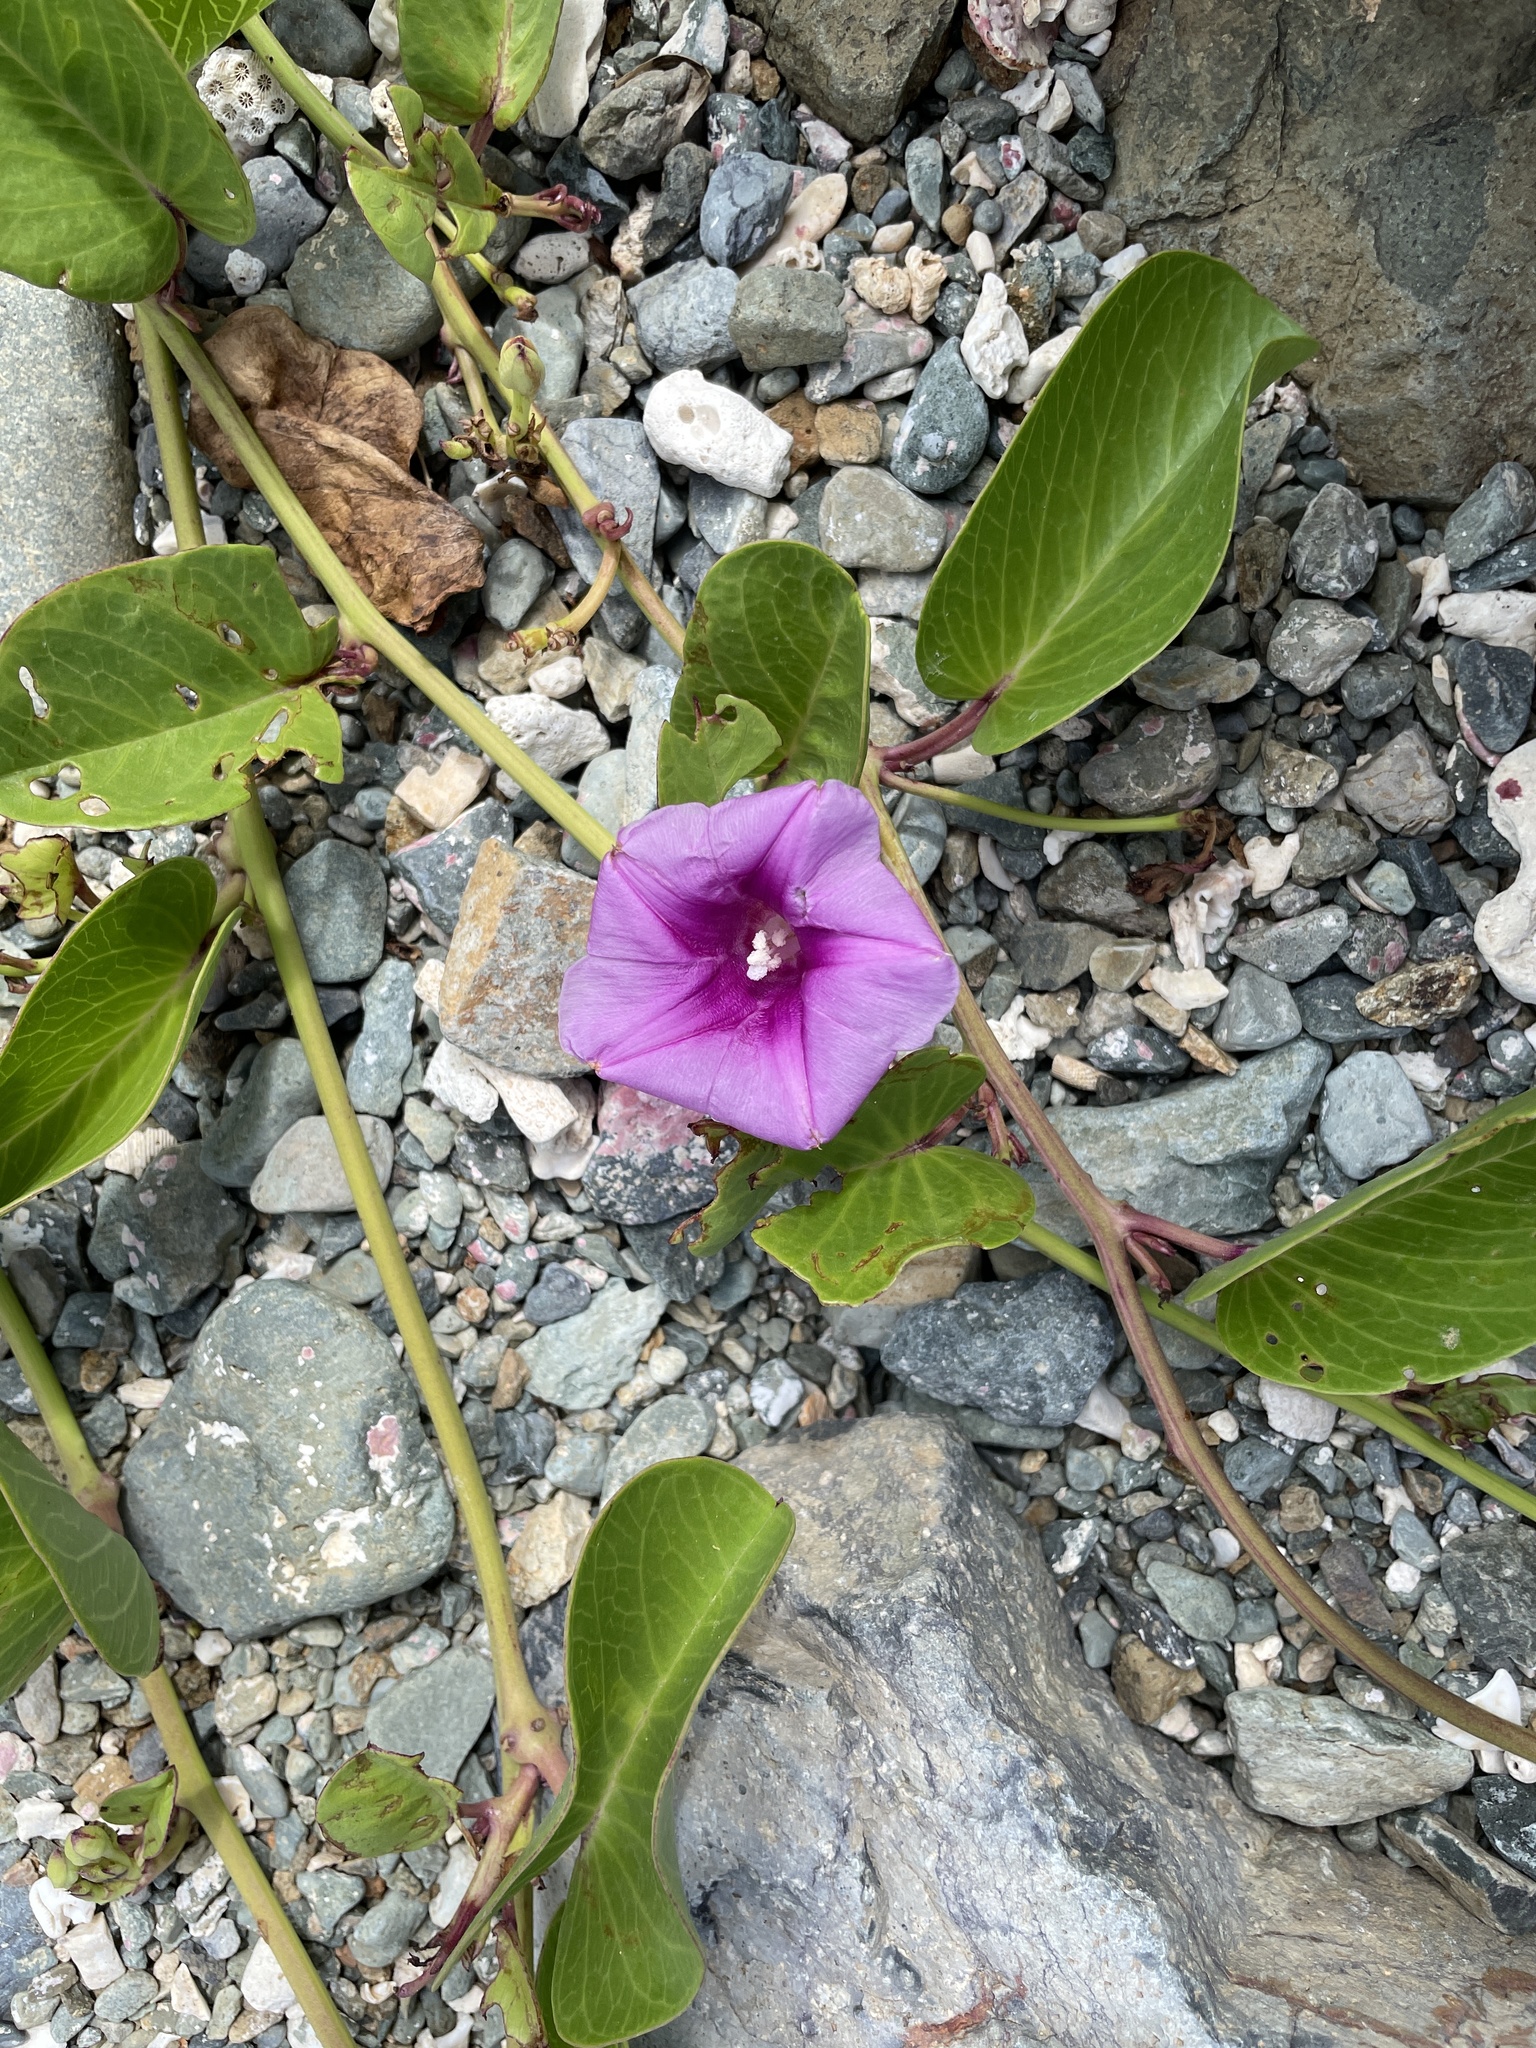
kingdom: Plantae
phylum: Tracheophyta
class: Magnoliopsida
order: Solanales
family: Convolvulaceae
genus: Ipomoea
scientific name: Ipomoea pes-caprae
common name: Beach morning glory
